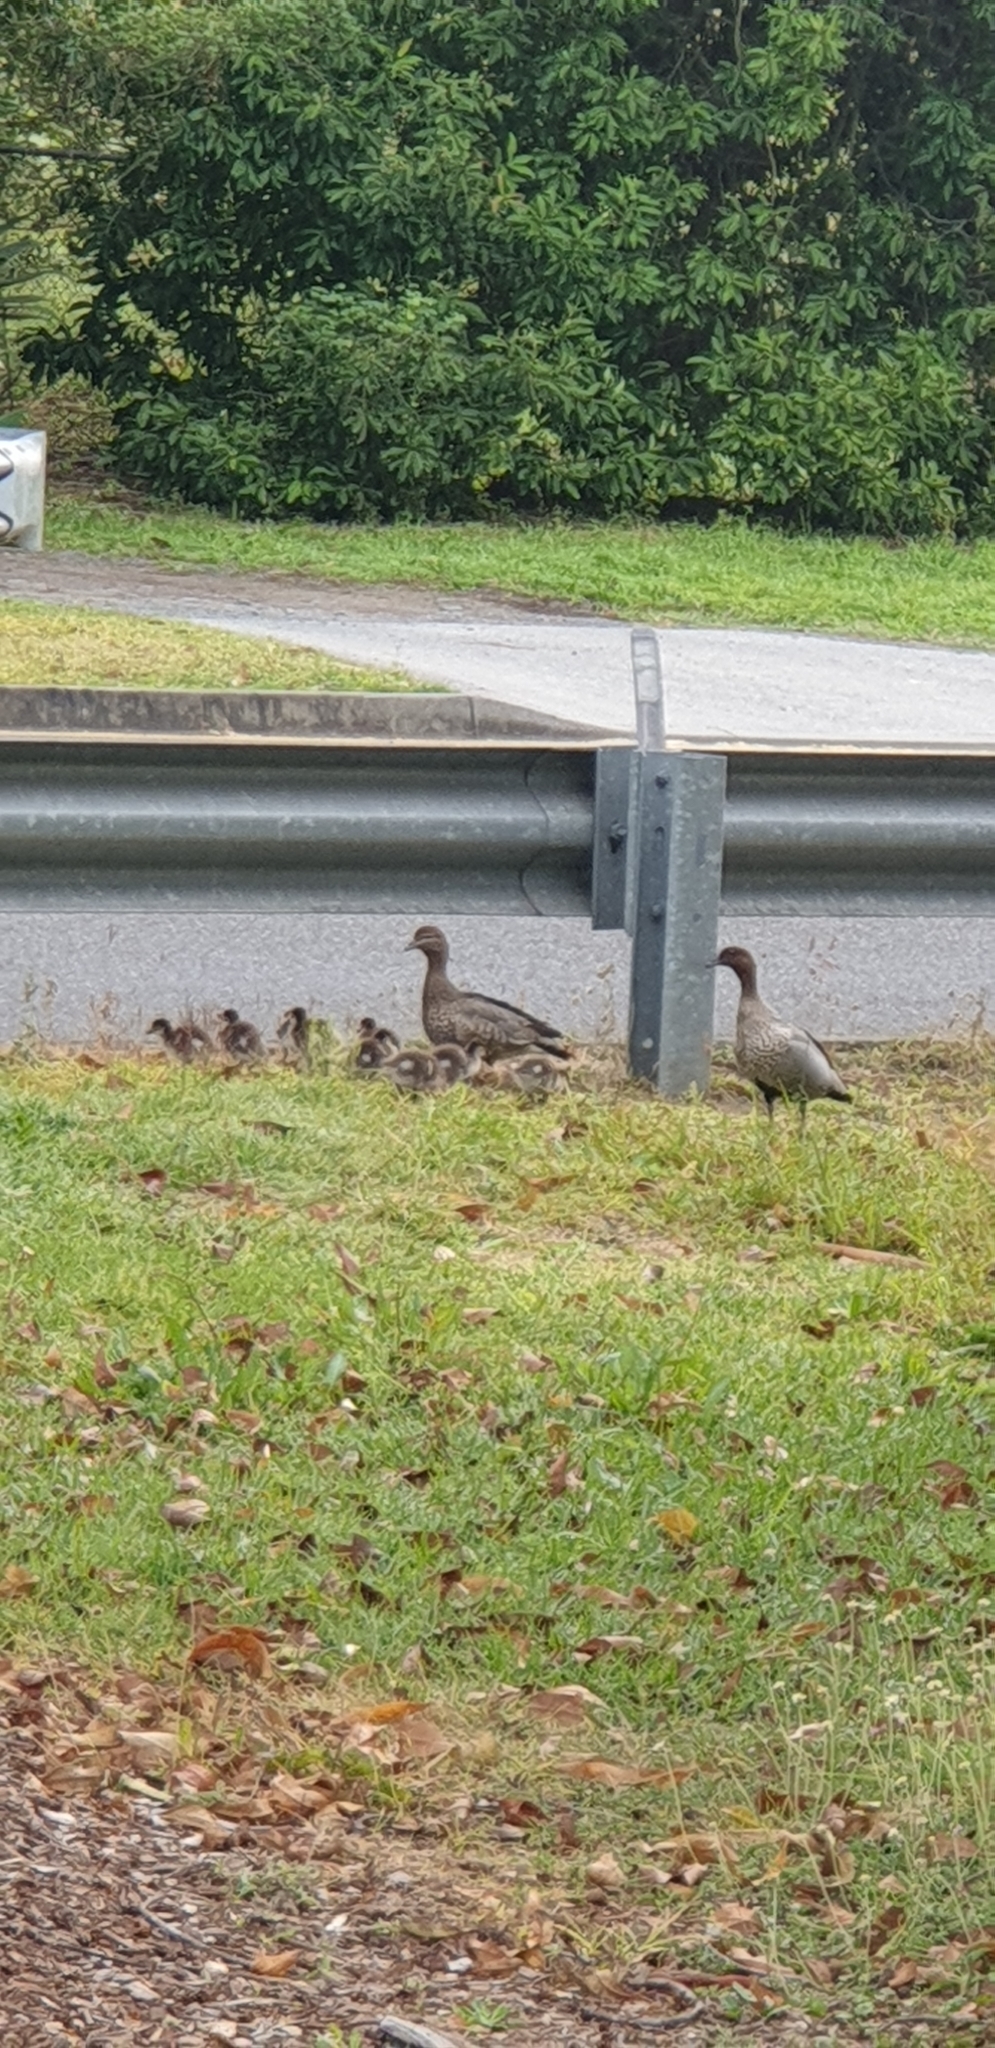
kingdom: Animalia
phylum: Chordata
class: Aves
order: Anseriformes
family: Anatidae
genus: Chenonetta
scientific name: Chenonetta jubata
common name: Maned duck
